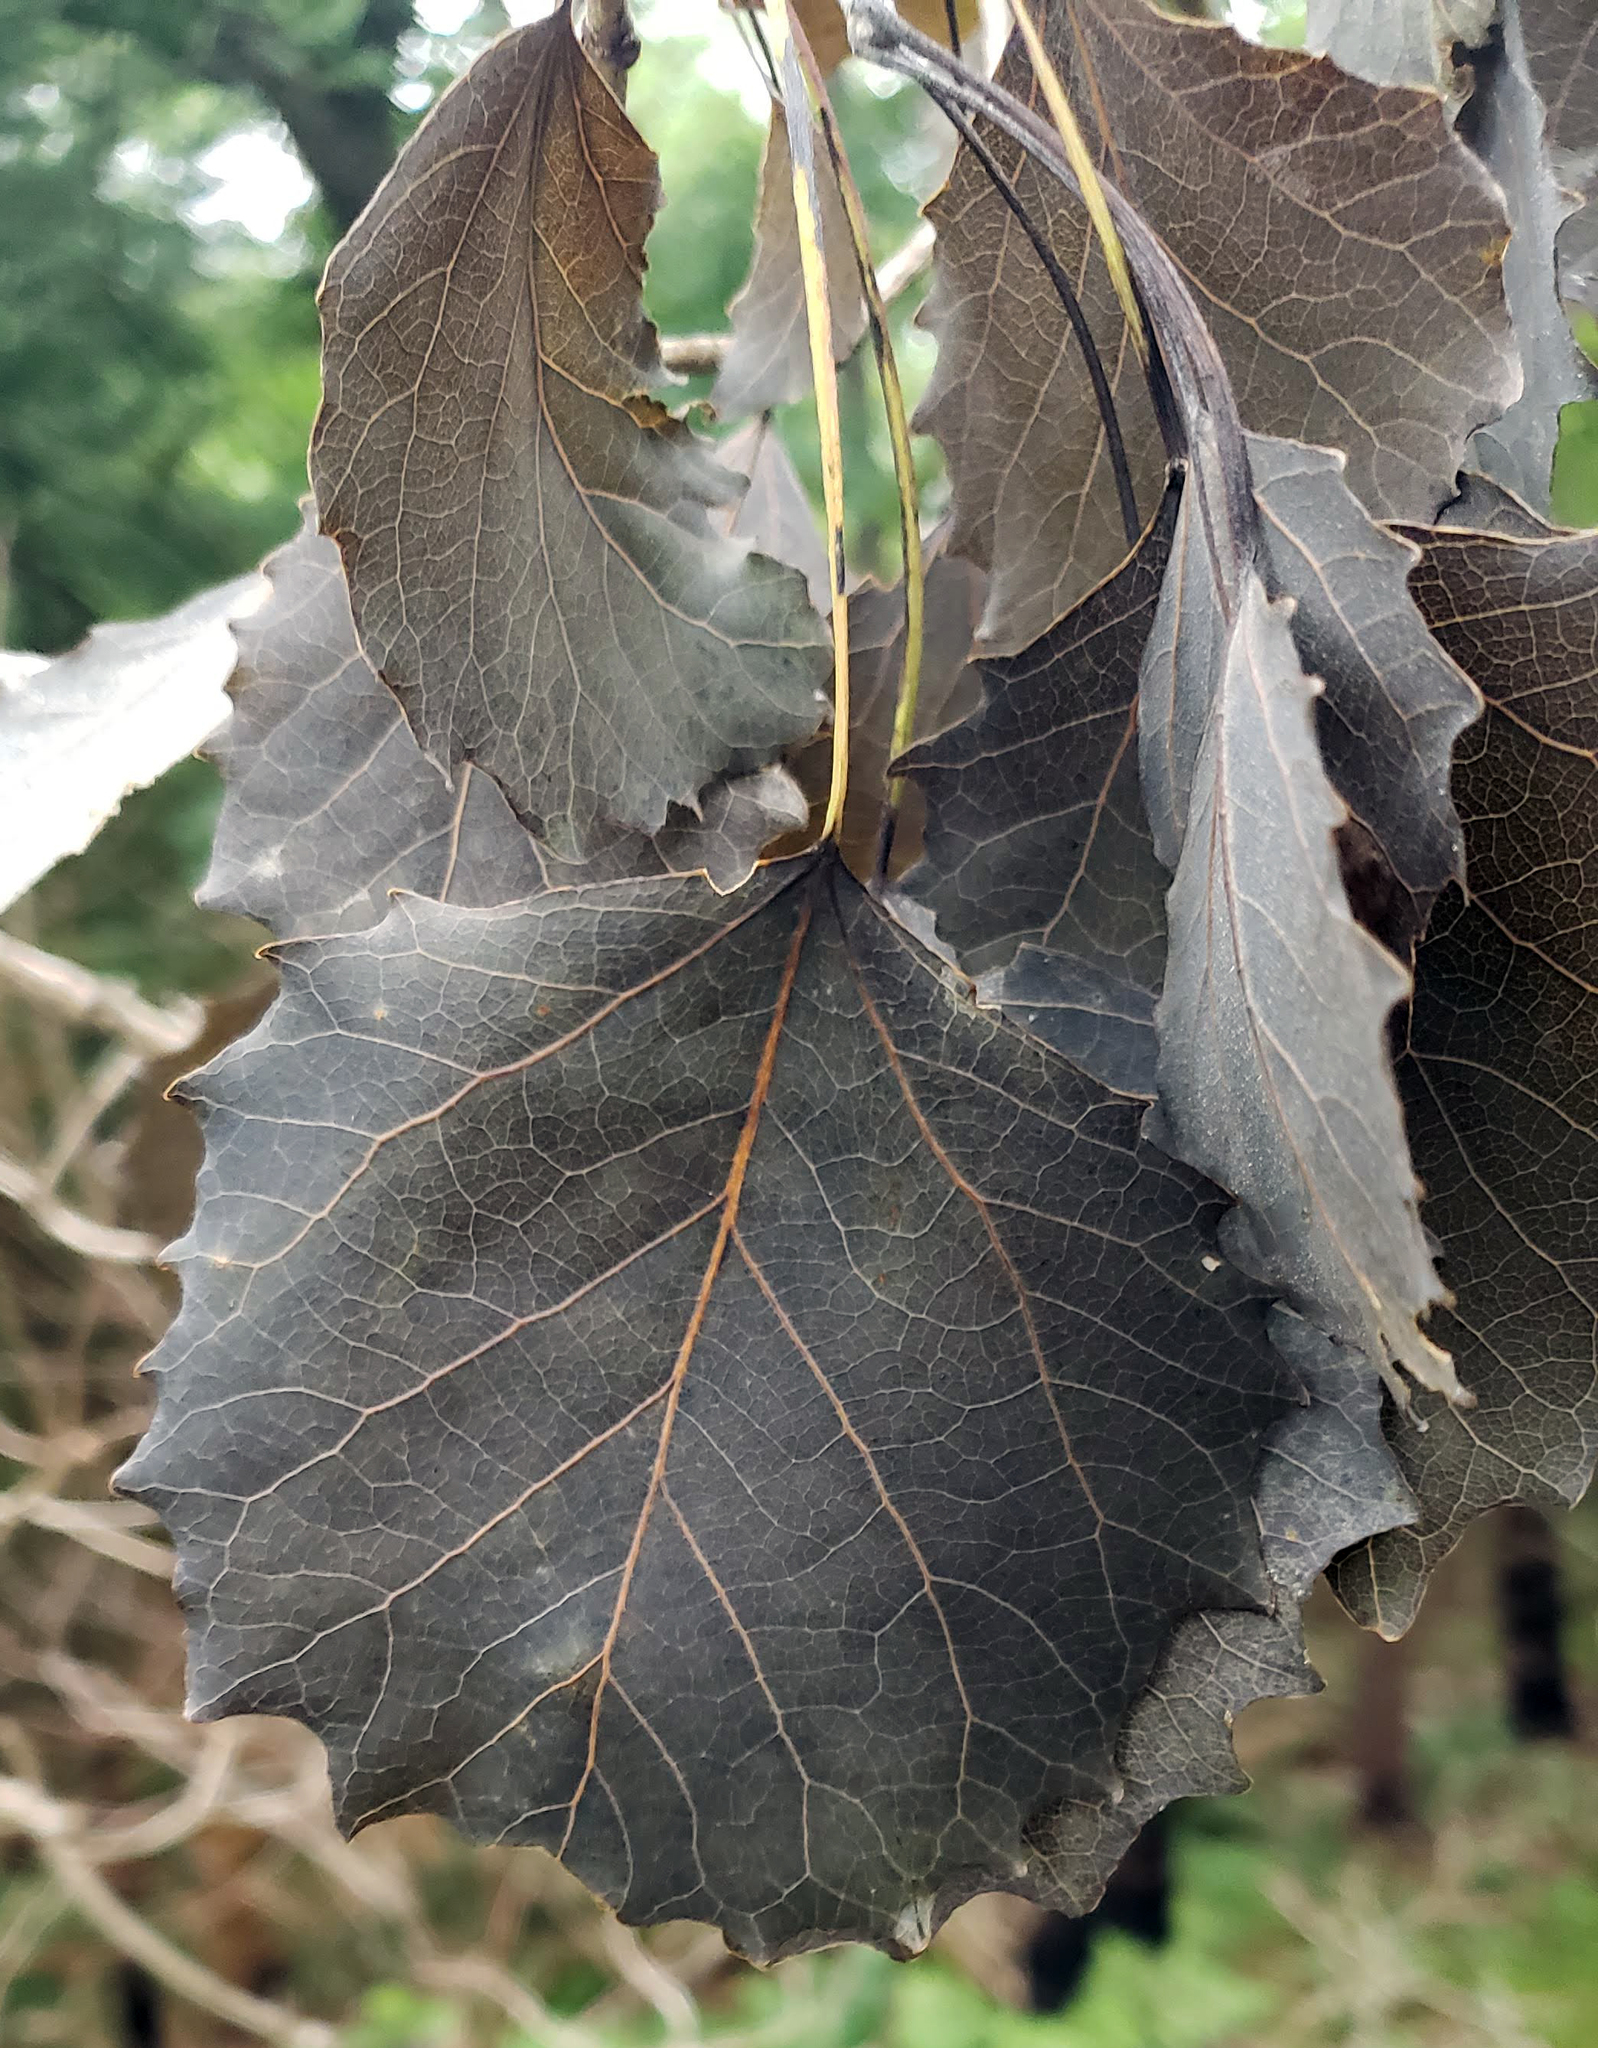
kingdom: Plantae
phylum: Tracheophyta
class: Magnoliopsida
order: Malpighiales
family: Salicaceae
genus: Populus
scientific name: Populus grandidentata
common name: Bigtooth aspen
